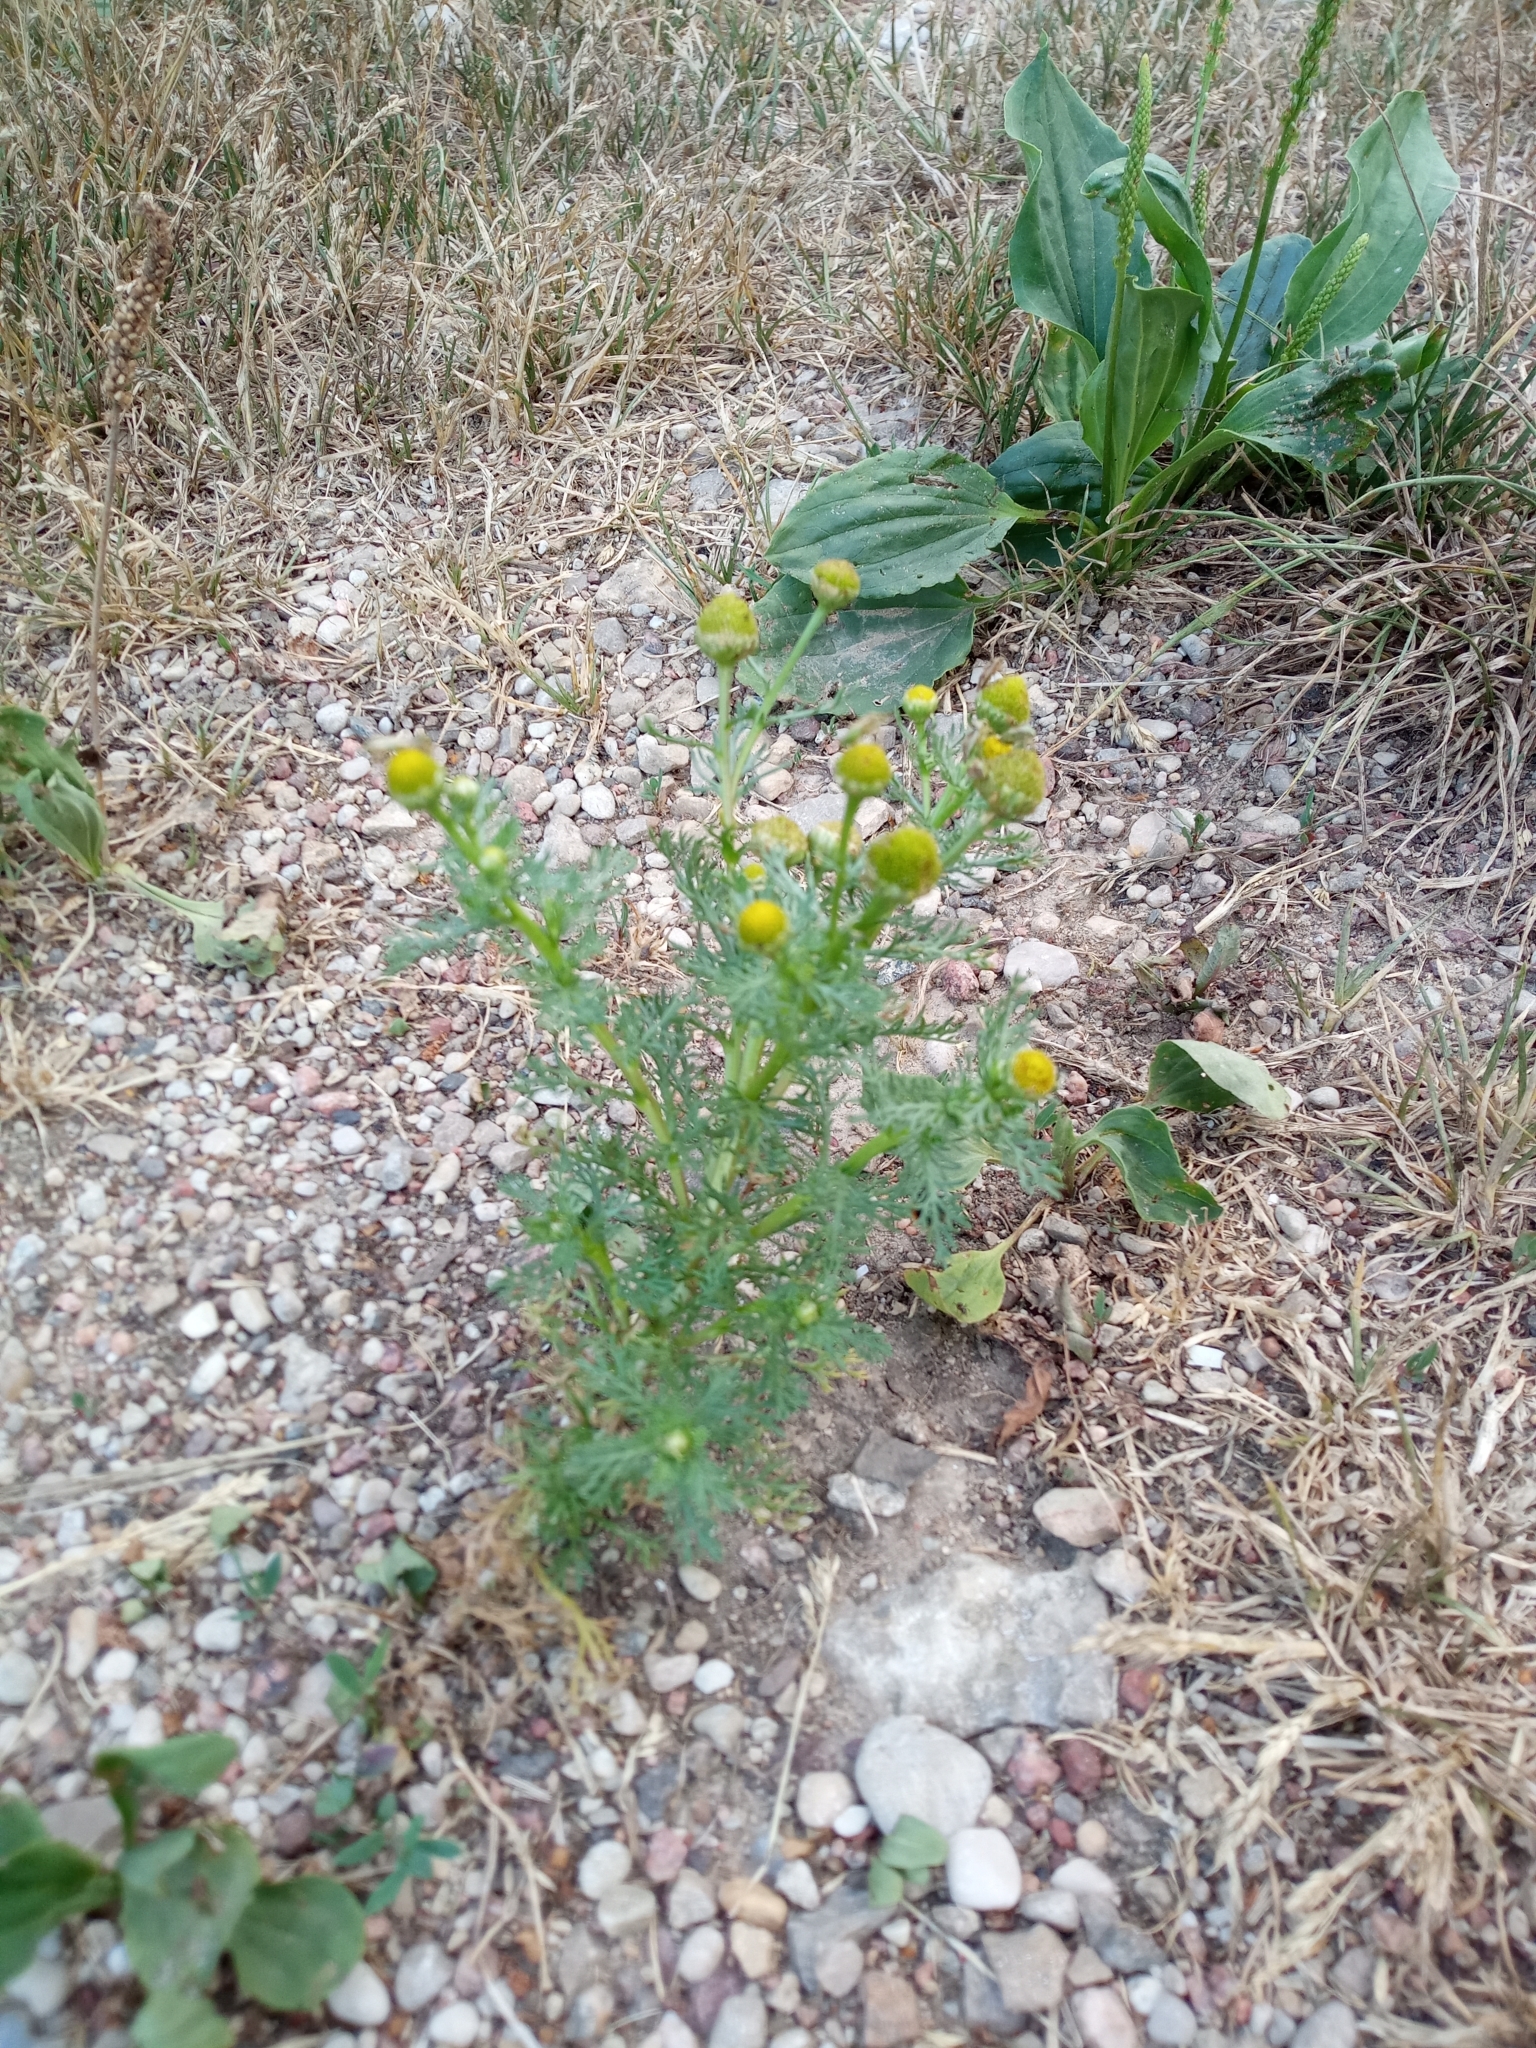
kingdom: Plantae
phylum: Tracheophyta
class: Magnoliopsida
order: Asterales
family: Asteraceae
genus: Matricaria
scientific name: Matricaria discoidea
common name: Disc mayweed
